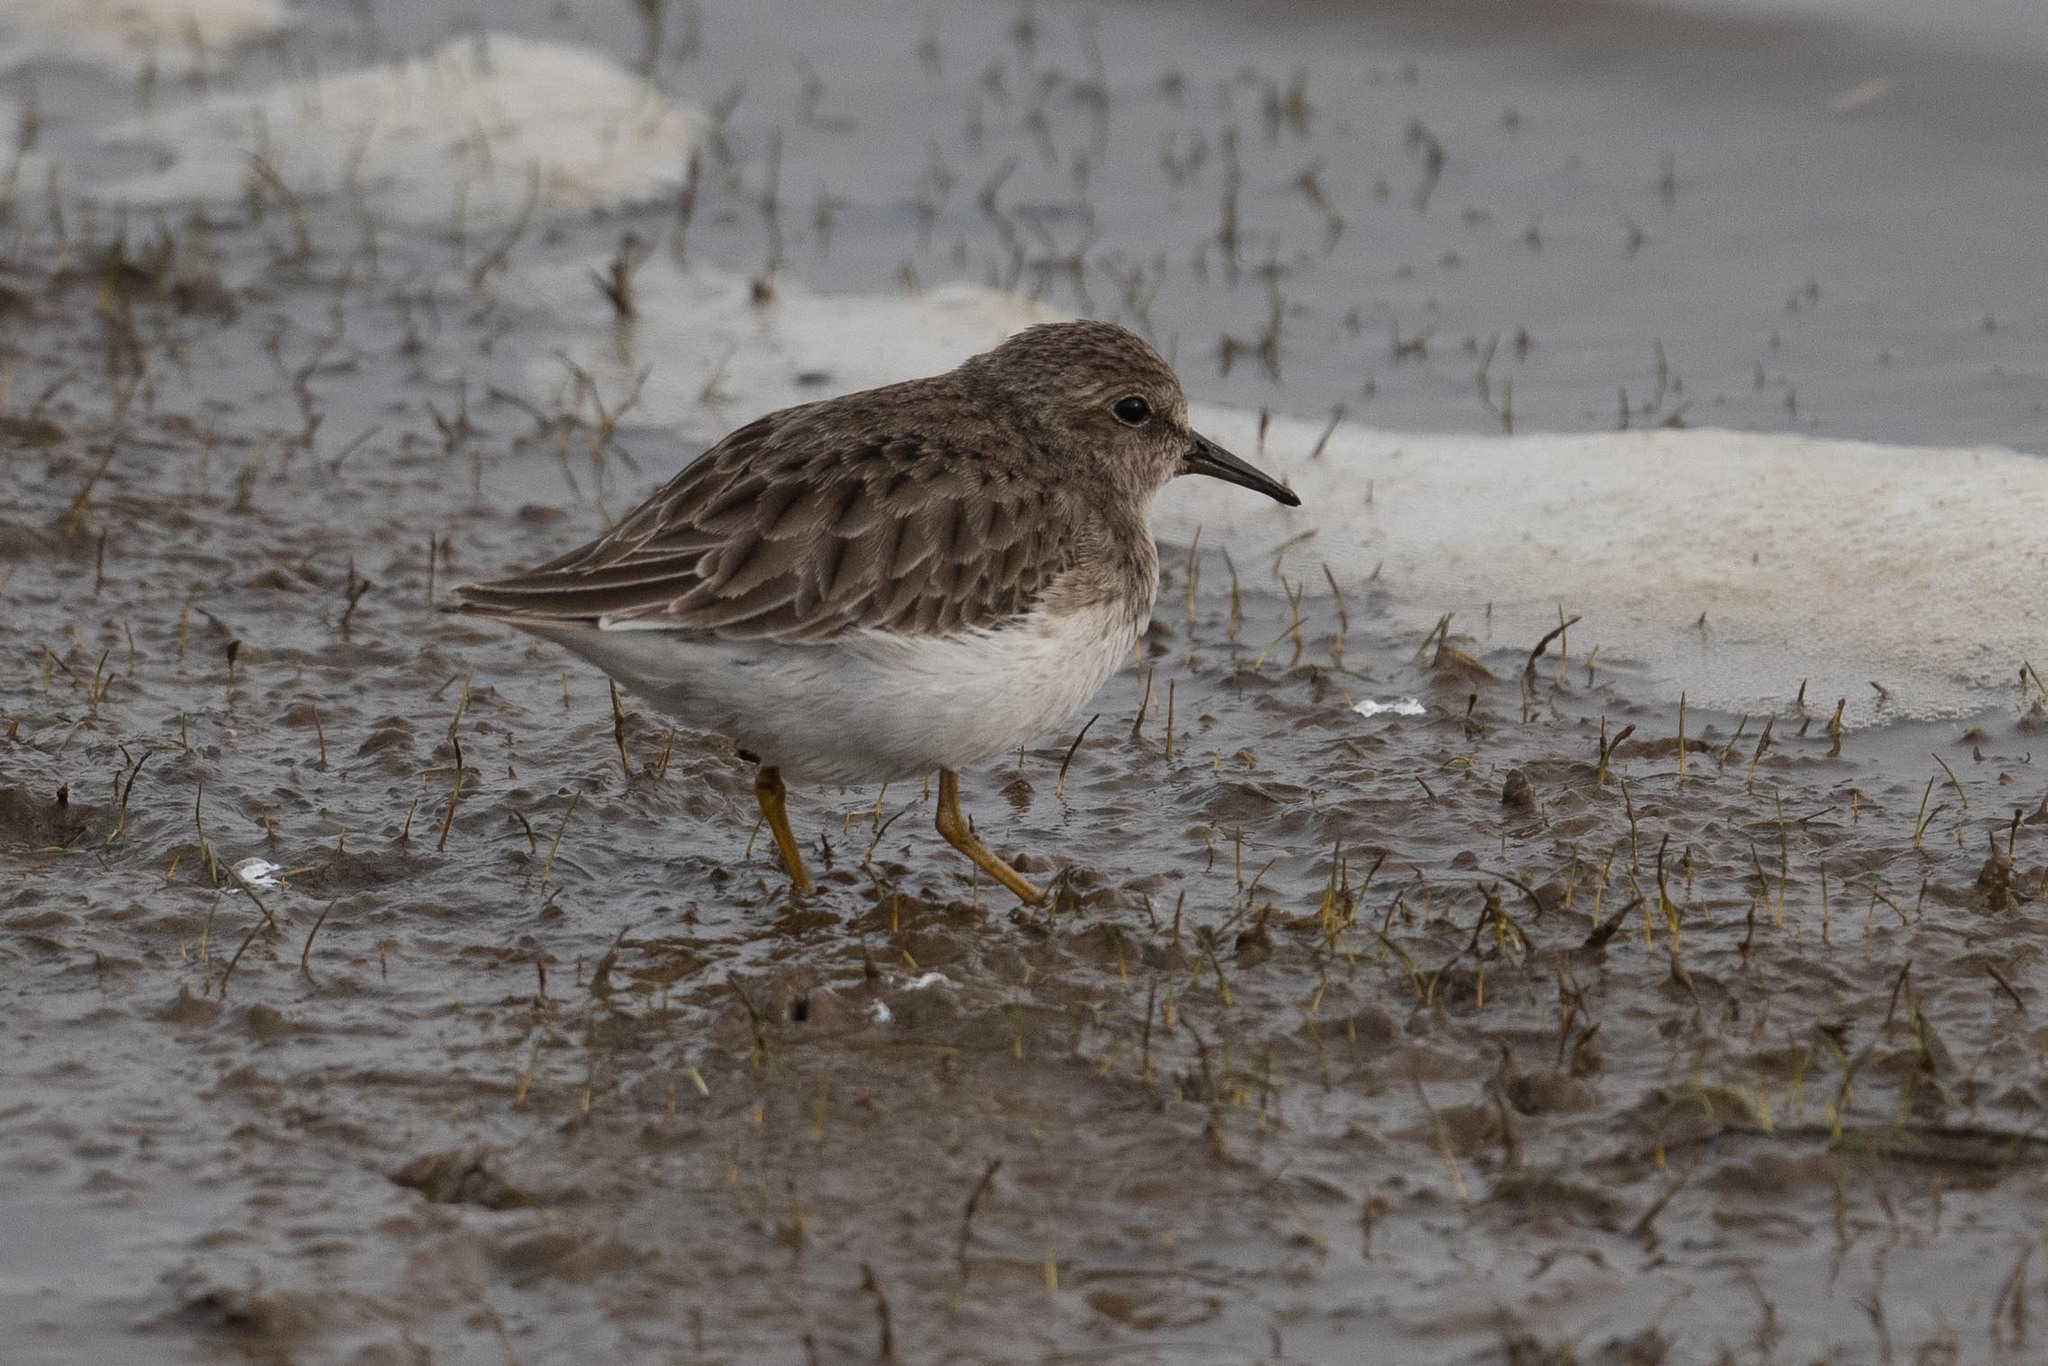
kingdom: Animalia
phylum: Chordata
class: Aves
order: Charadriiformes
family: Scolopacidae
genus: Calidris
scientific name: Calidris alpina
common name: Dunlin
